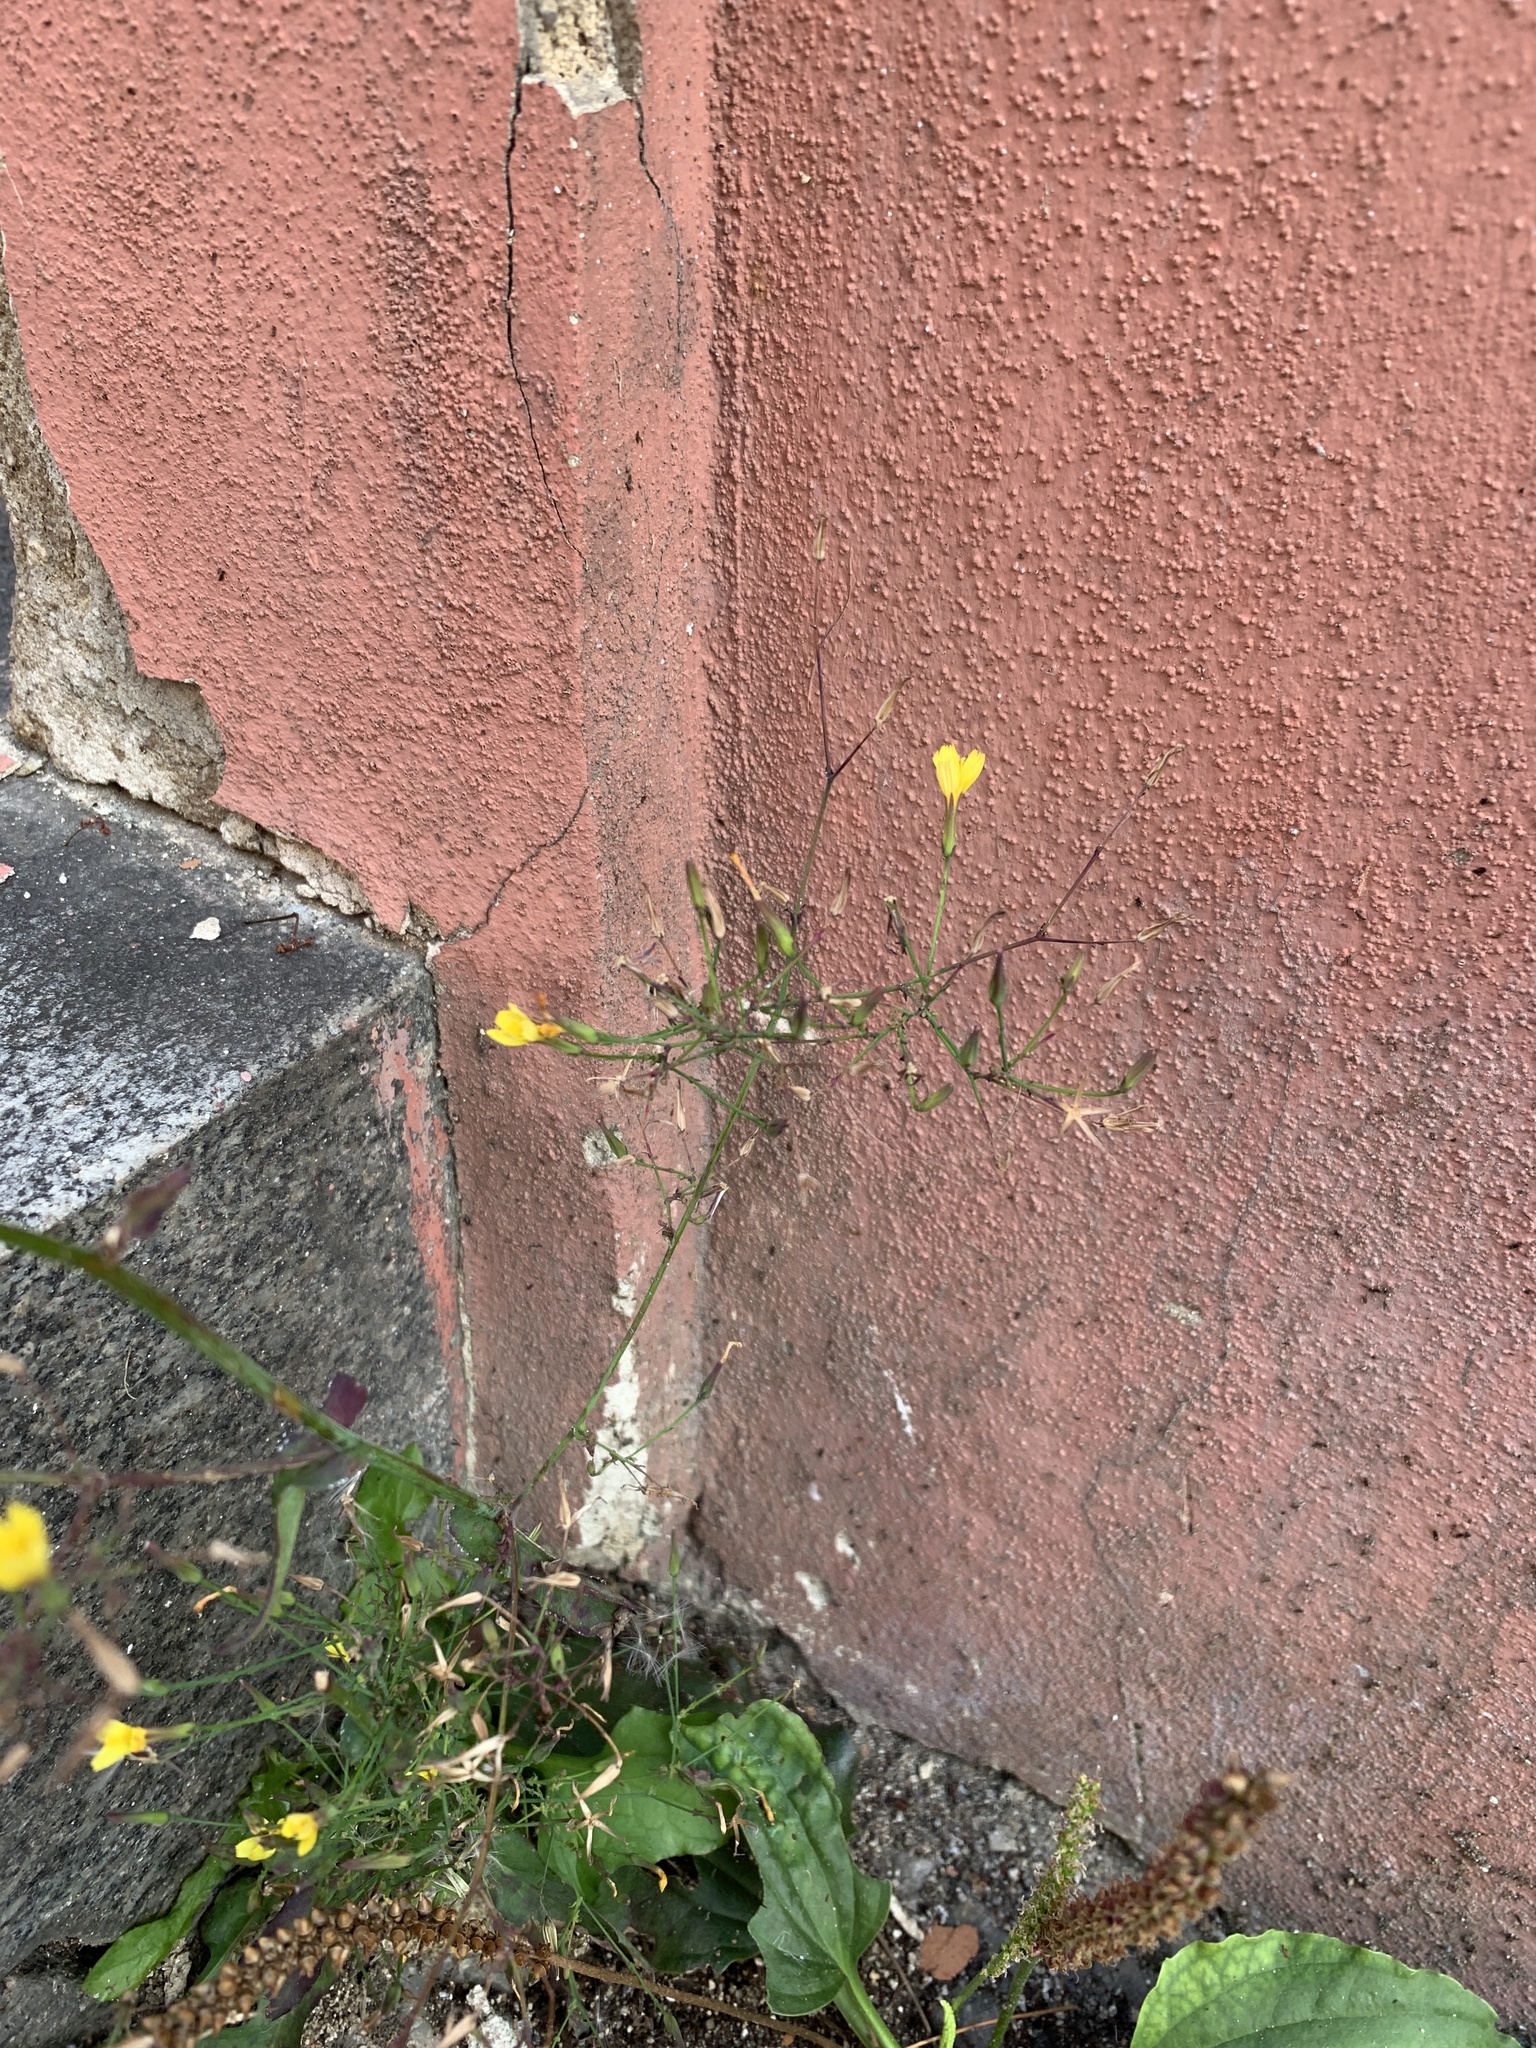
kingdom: Plantae
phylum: Tracheophyta
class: Magnoliopsida
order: Asterales
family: Asteraceae
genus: Mycelis
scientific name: Mycelis muralis
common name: Wall lettuce
